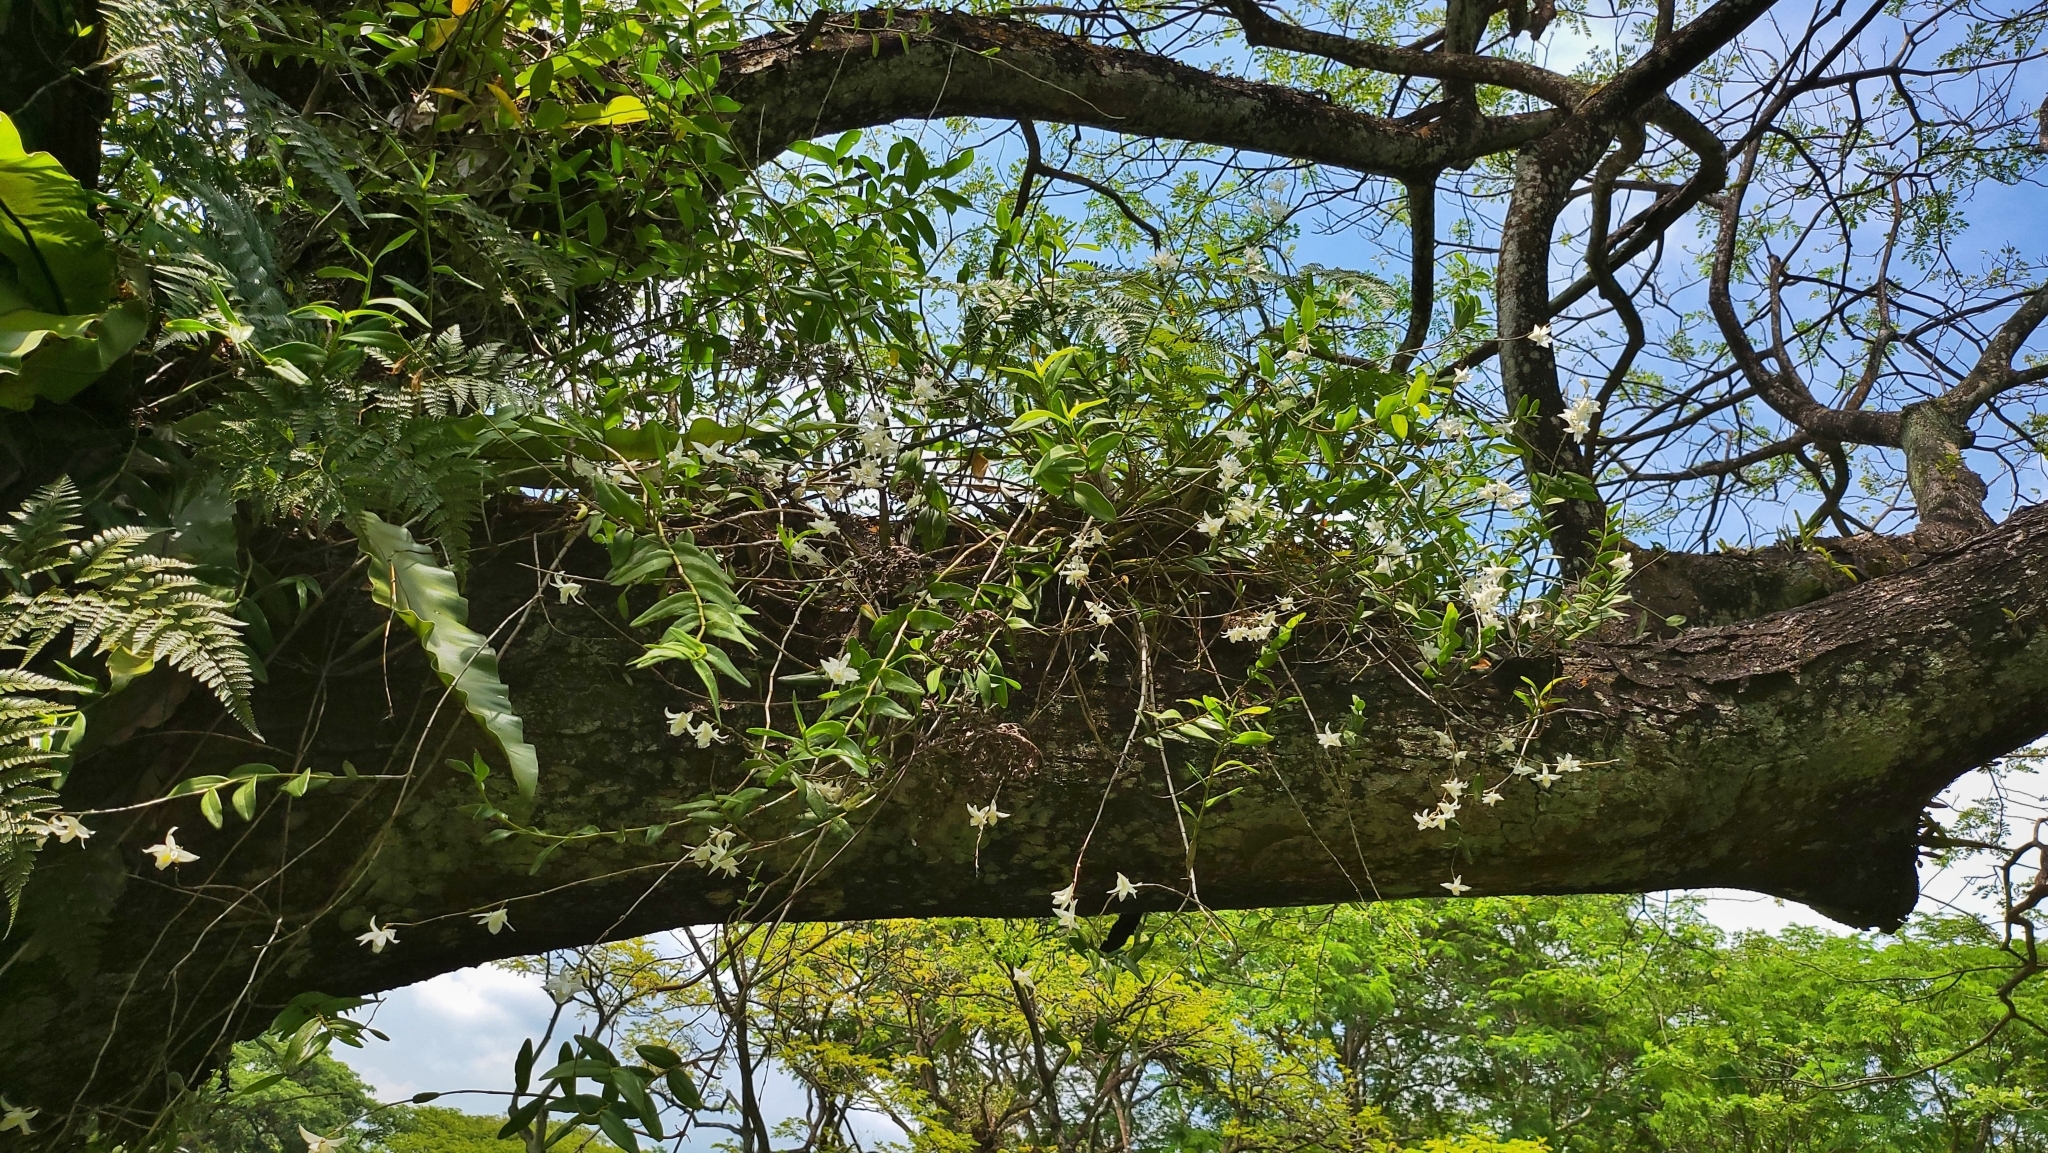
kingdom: Plantae
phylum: Tracheophyta
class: Liliopsida
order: Asparagales
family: Orchidaceae
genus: Dendrobium
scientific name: Dendrobium crumenatum
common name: Orchid
